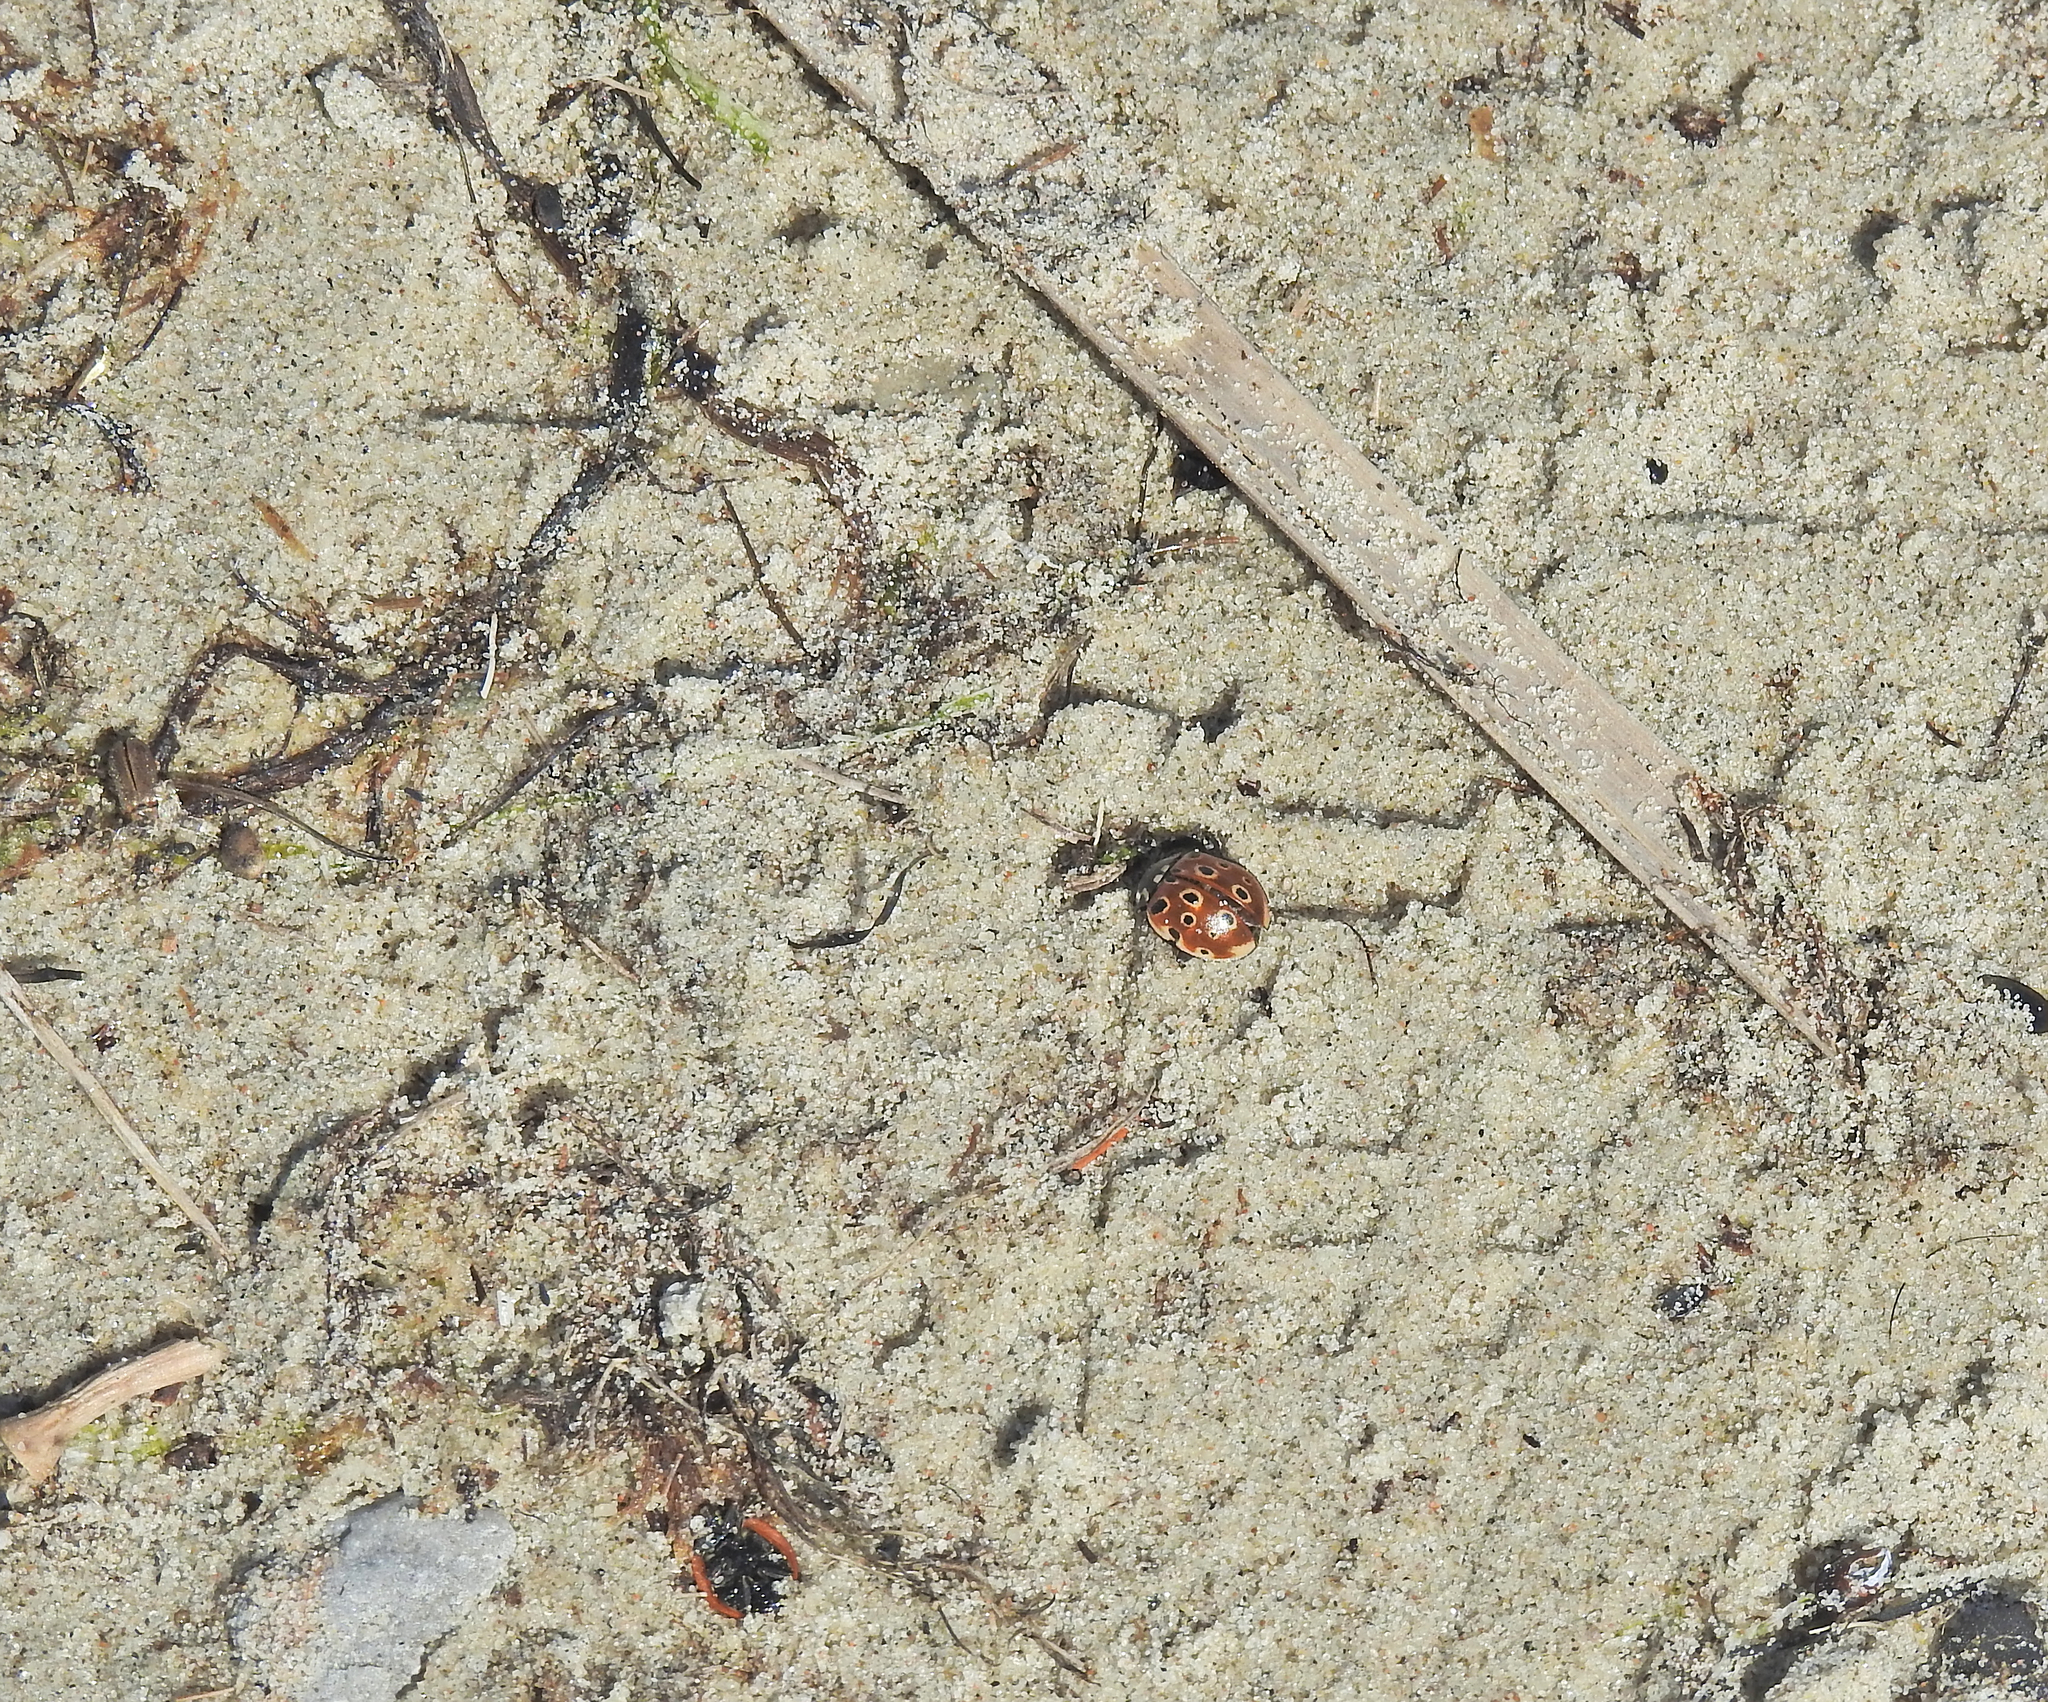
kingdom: Animalia
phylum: Arthropoda
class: Insecta
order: Coleoptera
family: Coccinellidae
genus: Anatis
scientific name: Anatis ocellata
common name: Eyed ladybird
